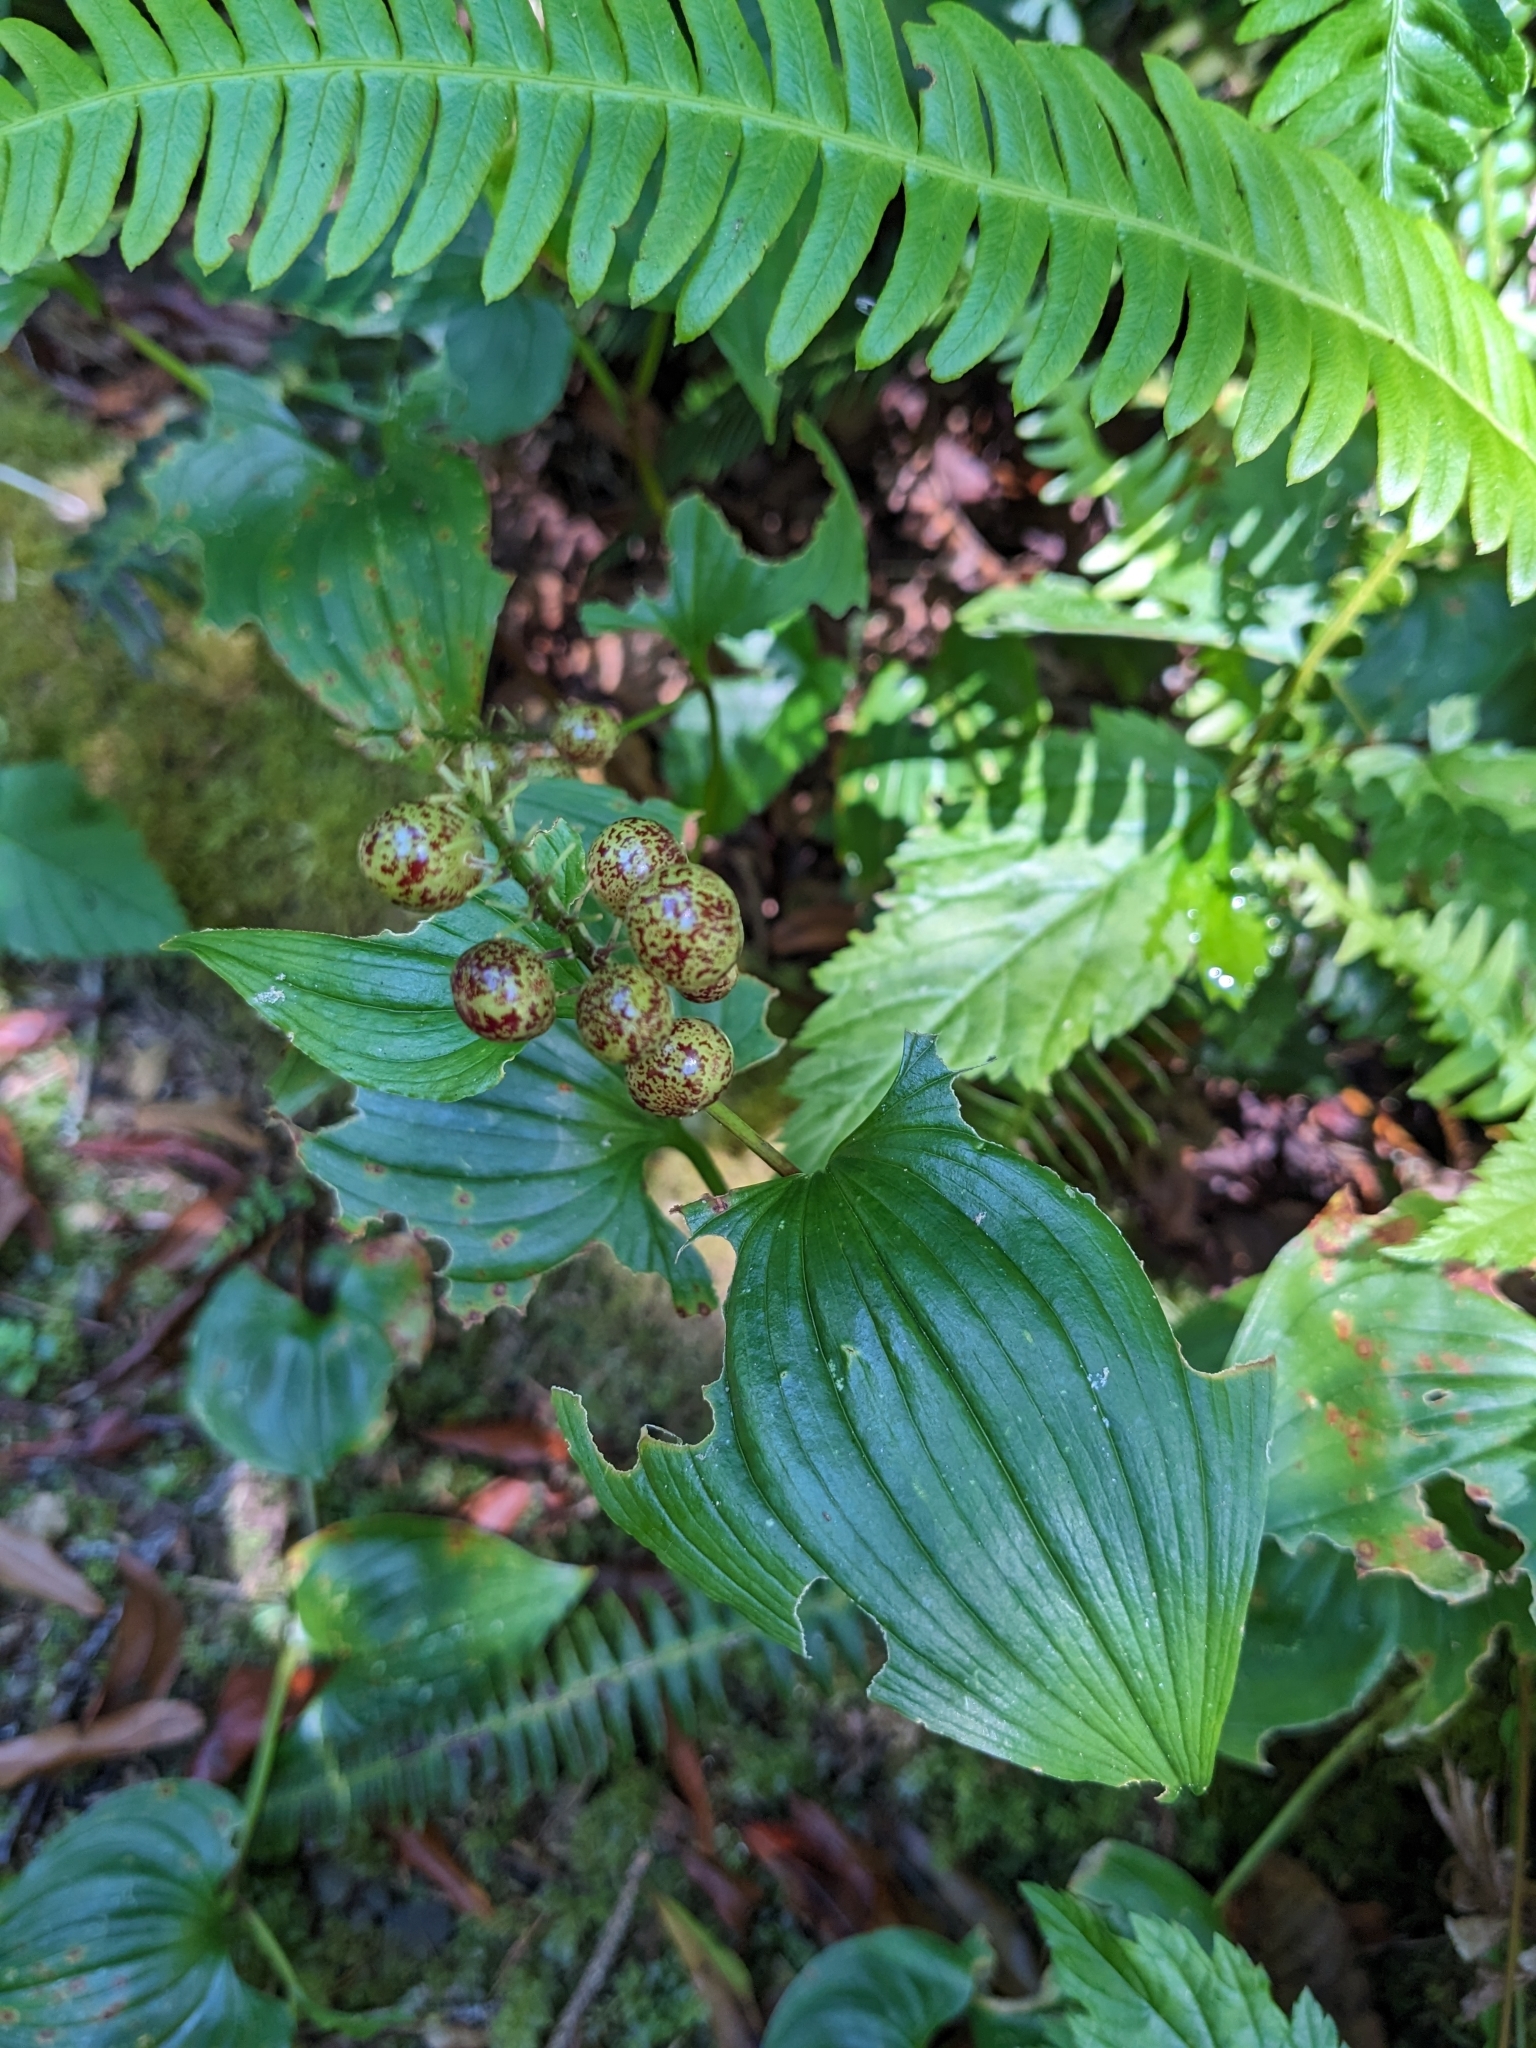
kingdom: Plantae
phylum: Tracheophyta
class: Liliopsida
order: Asparagales
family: Asparagaceae
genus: Maianthemum
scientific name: Maianthemum dilatatum
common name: False lily-of-the-valley
